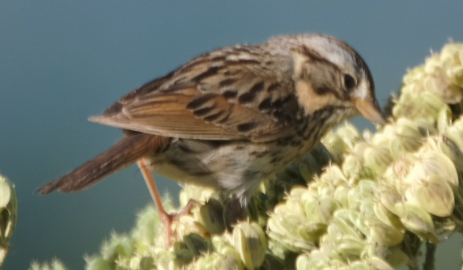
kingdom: Animalia
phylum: Chordata
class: Aves
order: Passeriformes
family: Passerellidae
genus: Melospiza
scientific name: Melospiza lincolnii
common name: Lincoln's sparrow
